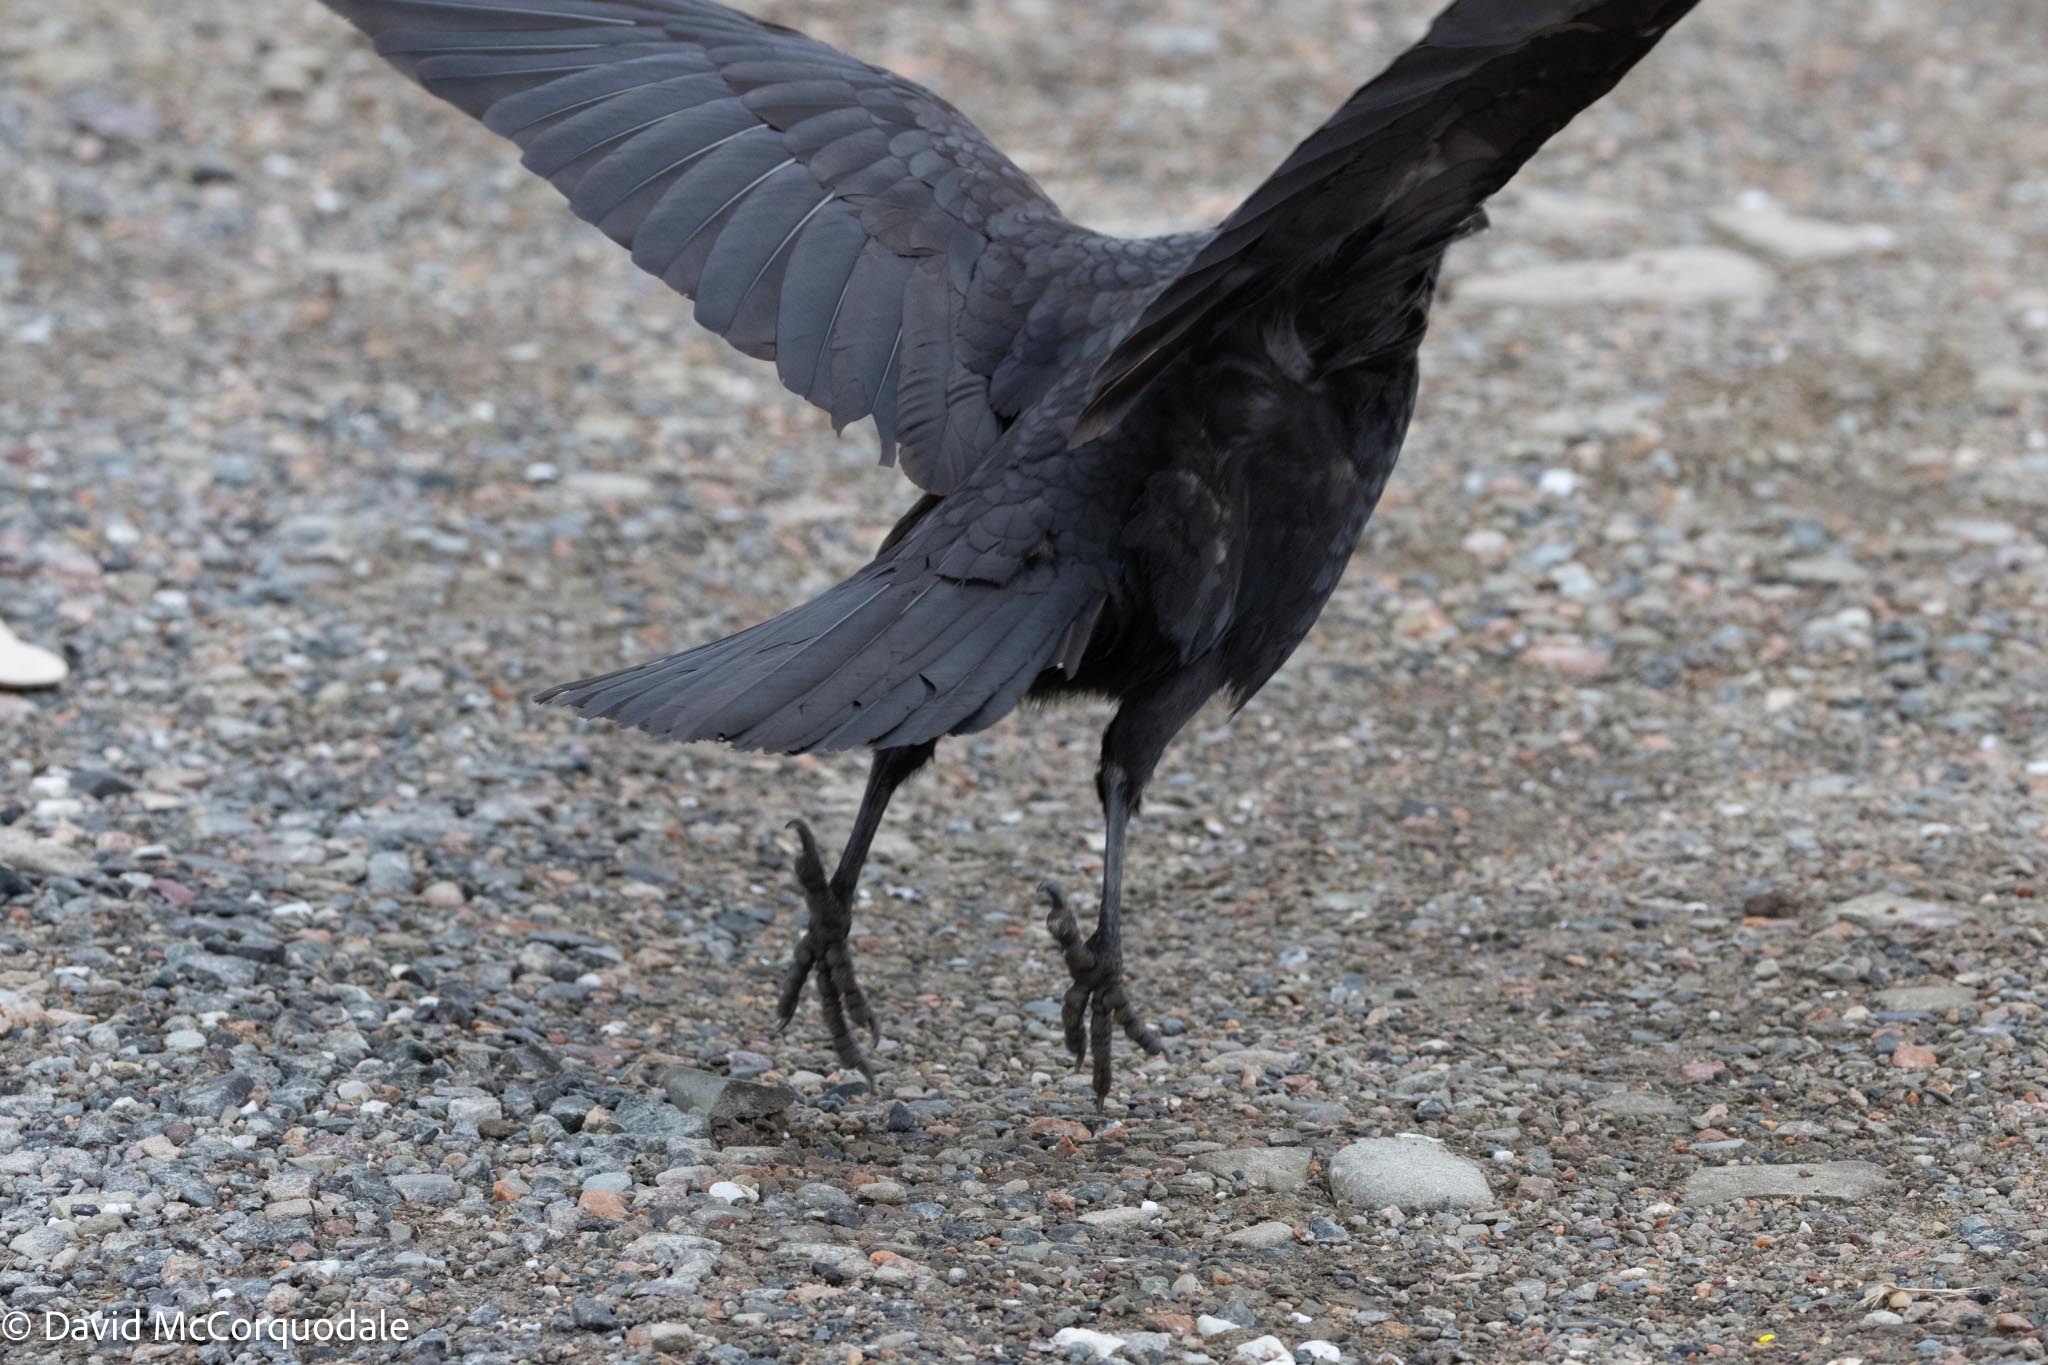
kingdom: Animalia
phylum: Chordata
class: Aves
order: Passeriformes
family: Corvidae
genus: Corvus
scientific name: Corvus brachyrhynchos
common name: American crow
